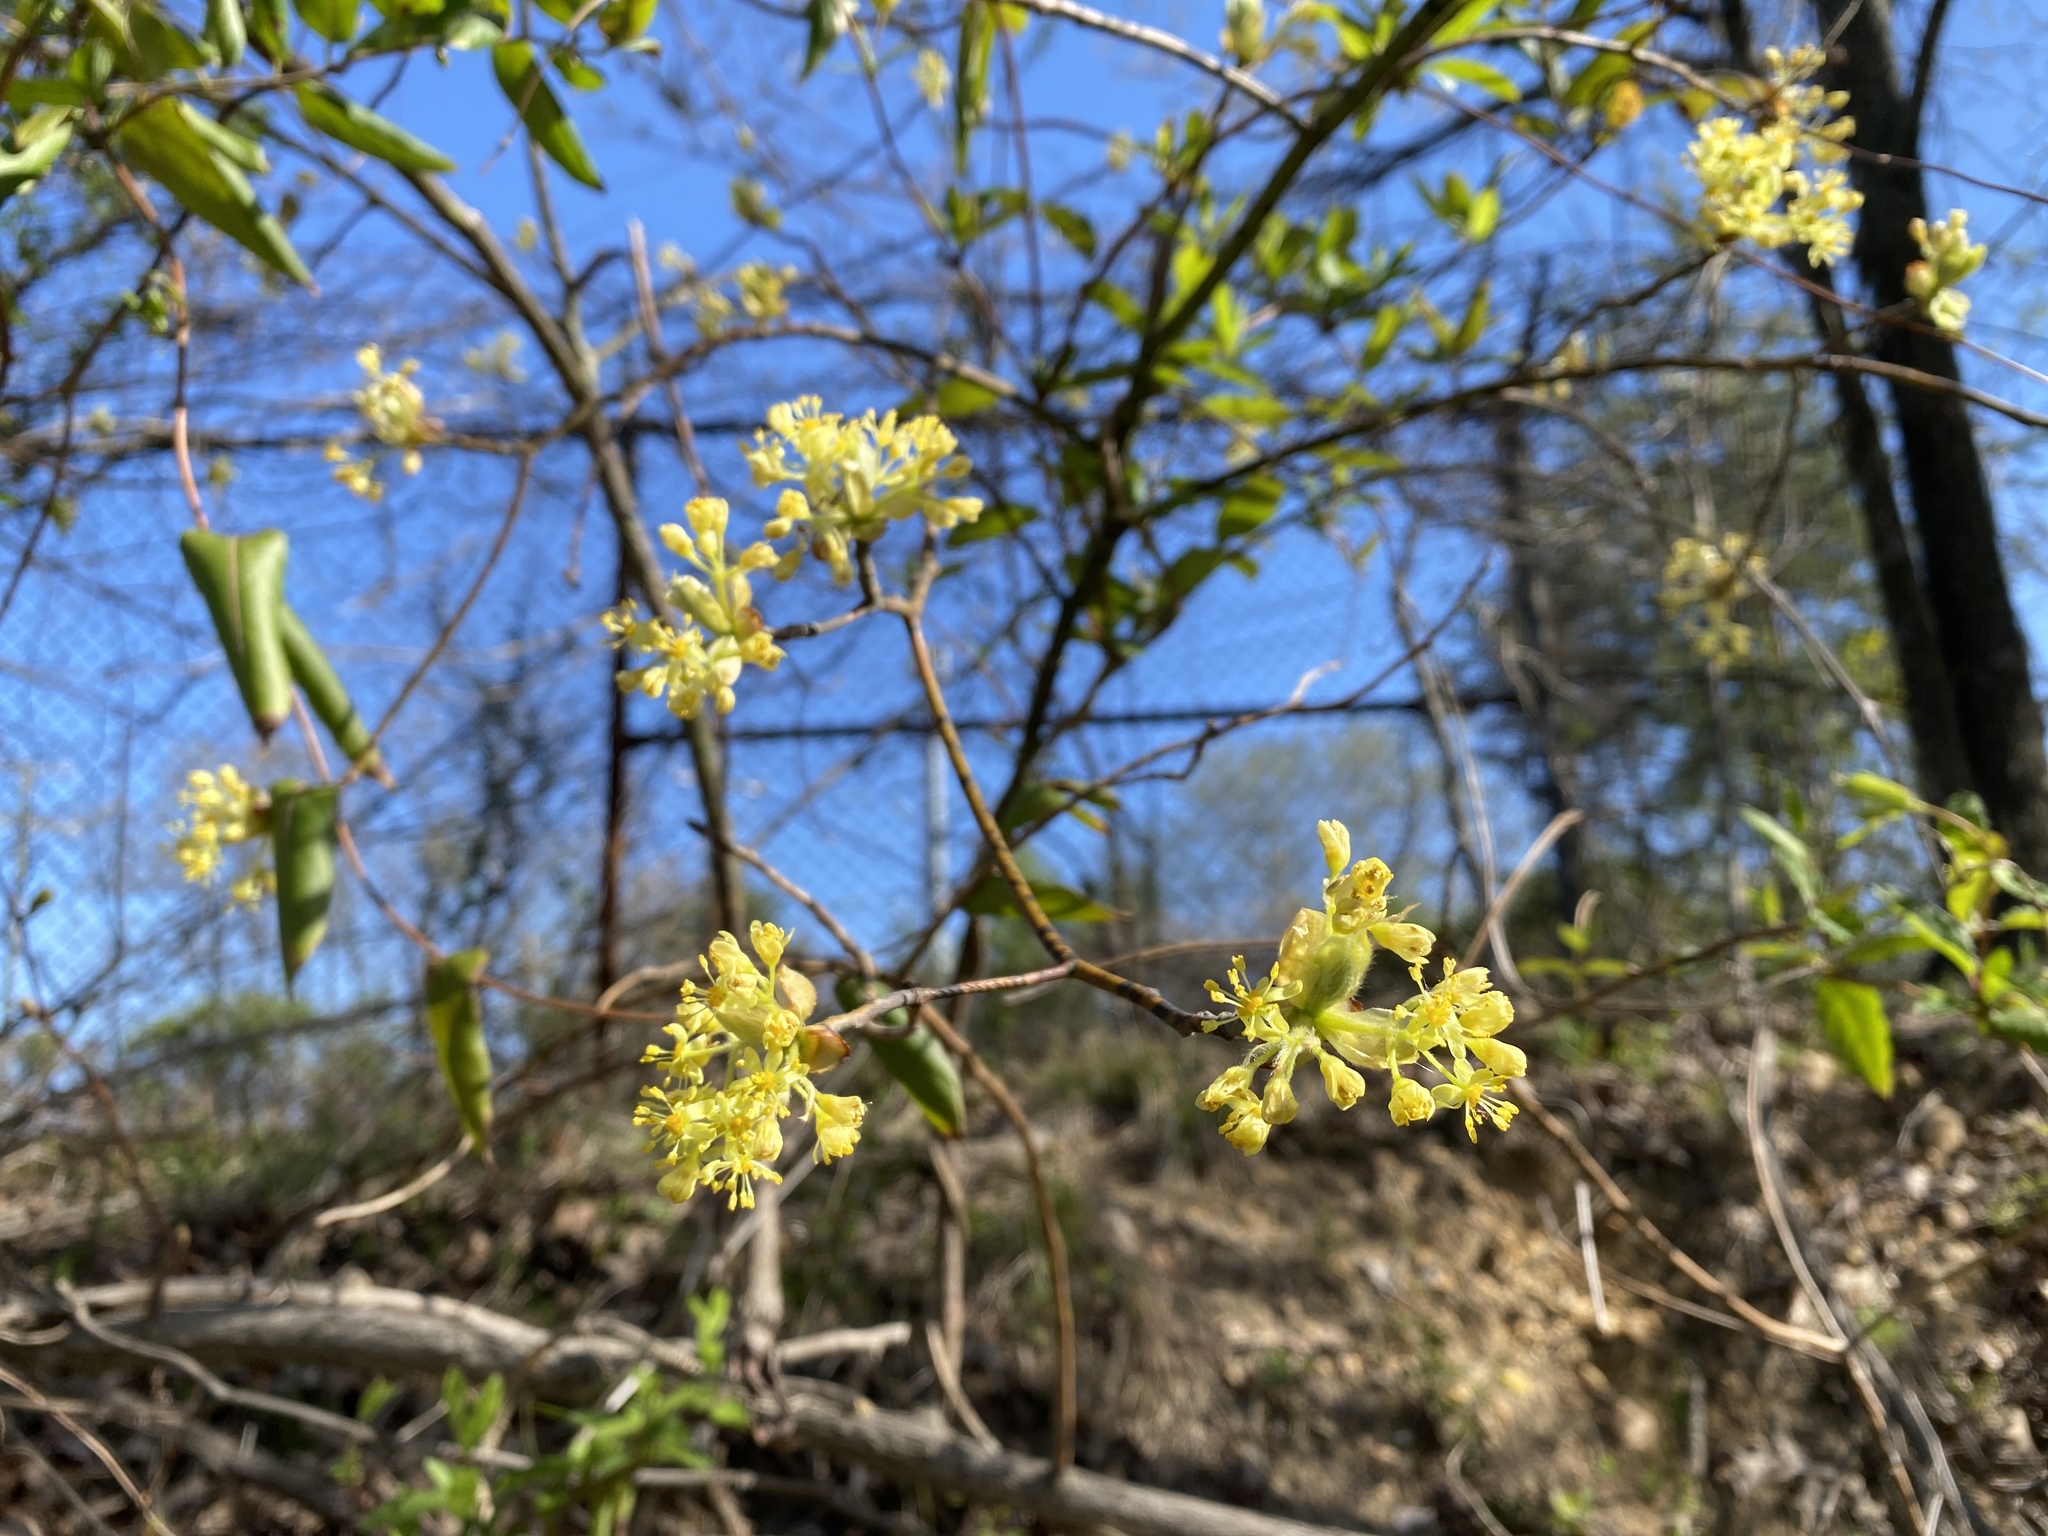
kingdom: Plantae
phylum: Tracheophyta
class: Magnoliopsida
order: Laurales
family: Lauraceae
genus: Sassafras
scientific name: Sassafras albidum
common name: Sassafras
